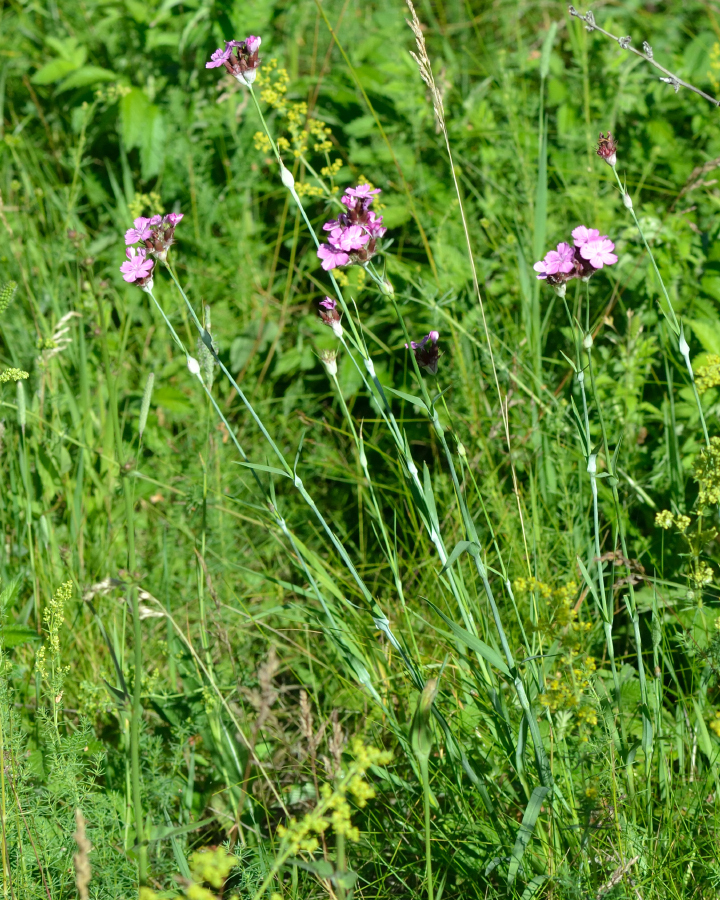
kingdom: Plantae
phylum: Tracheophyta
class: Magnoliopsida
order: Caryophyllales
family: Caryophyllaceae
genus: Dianthus
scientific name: Dianthus capitatus
